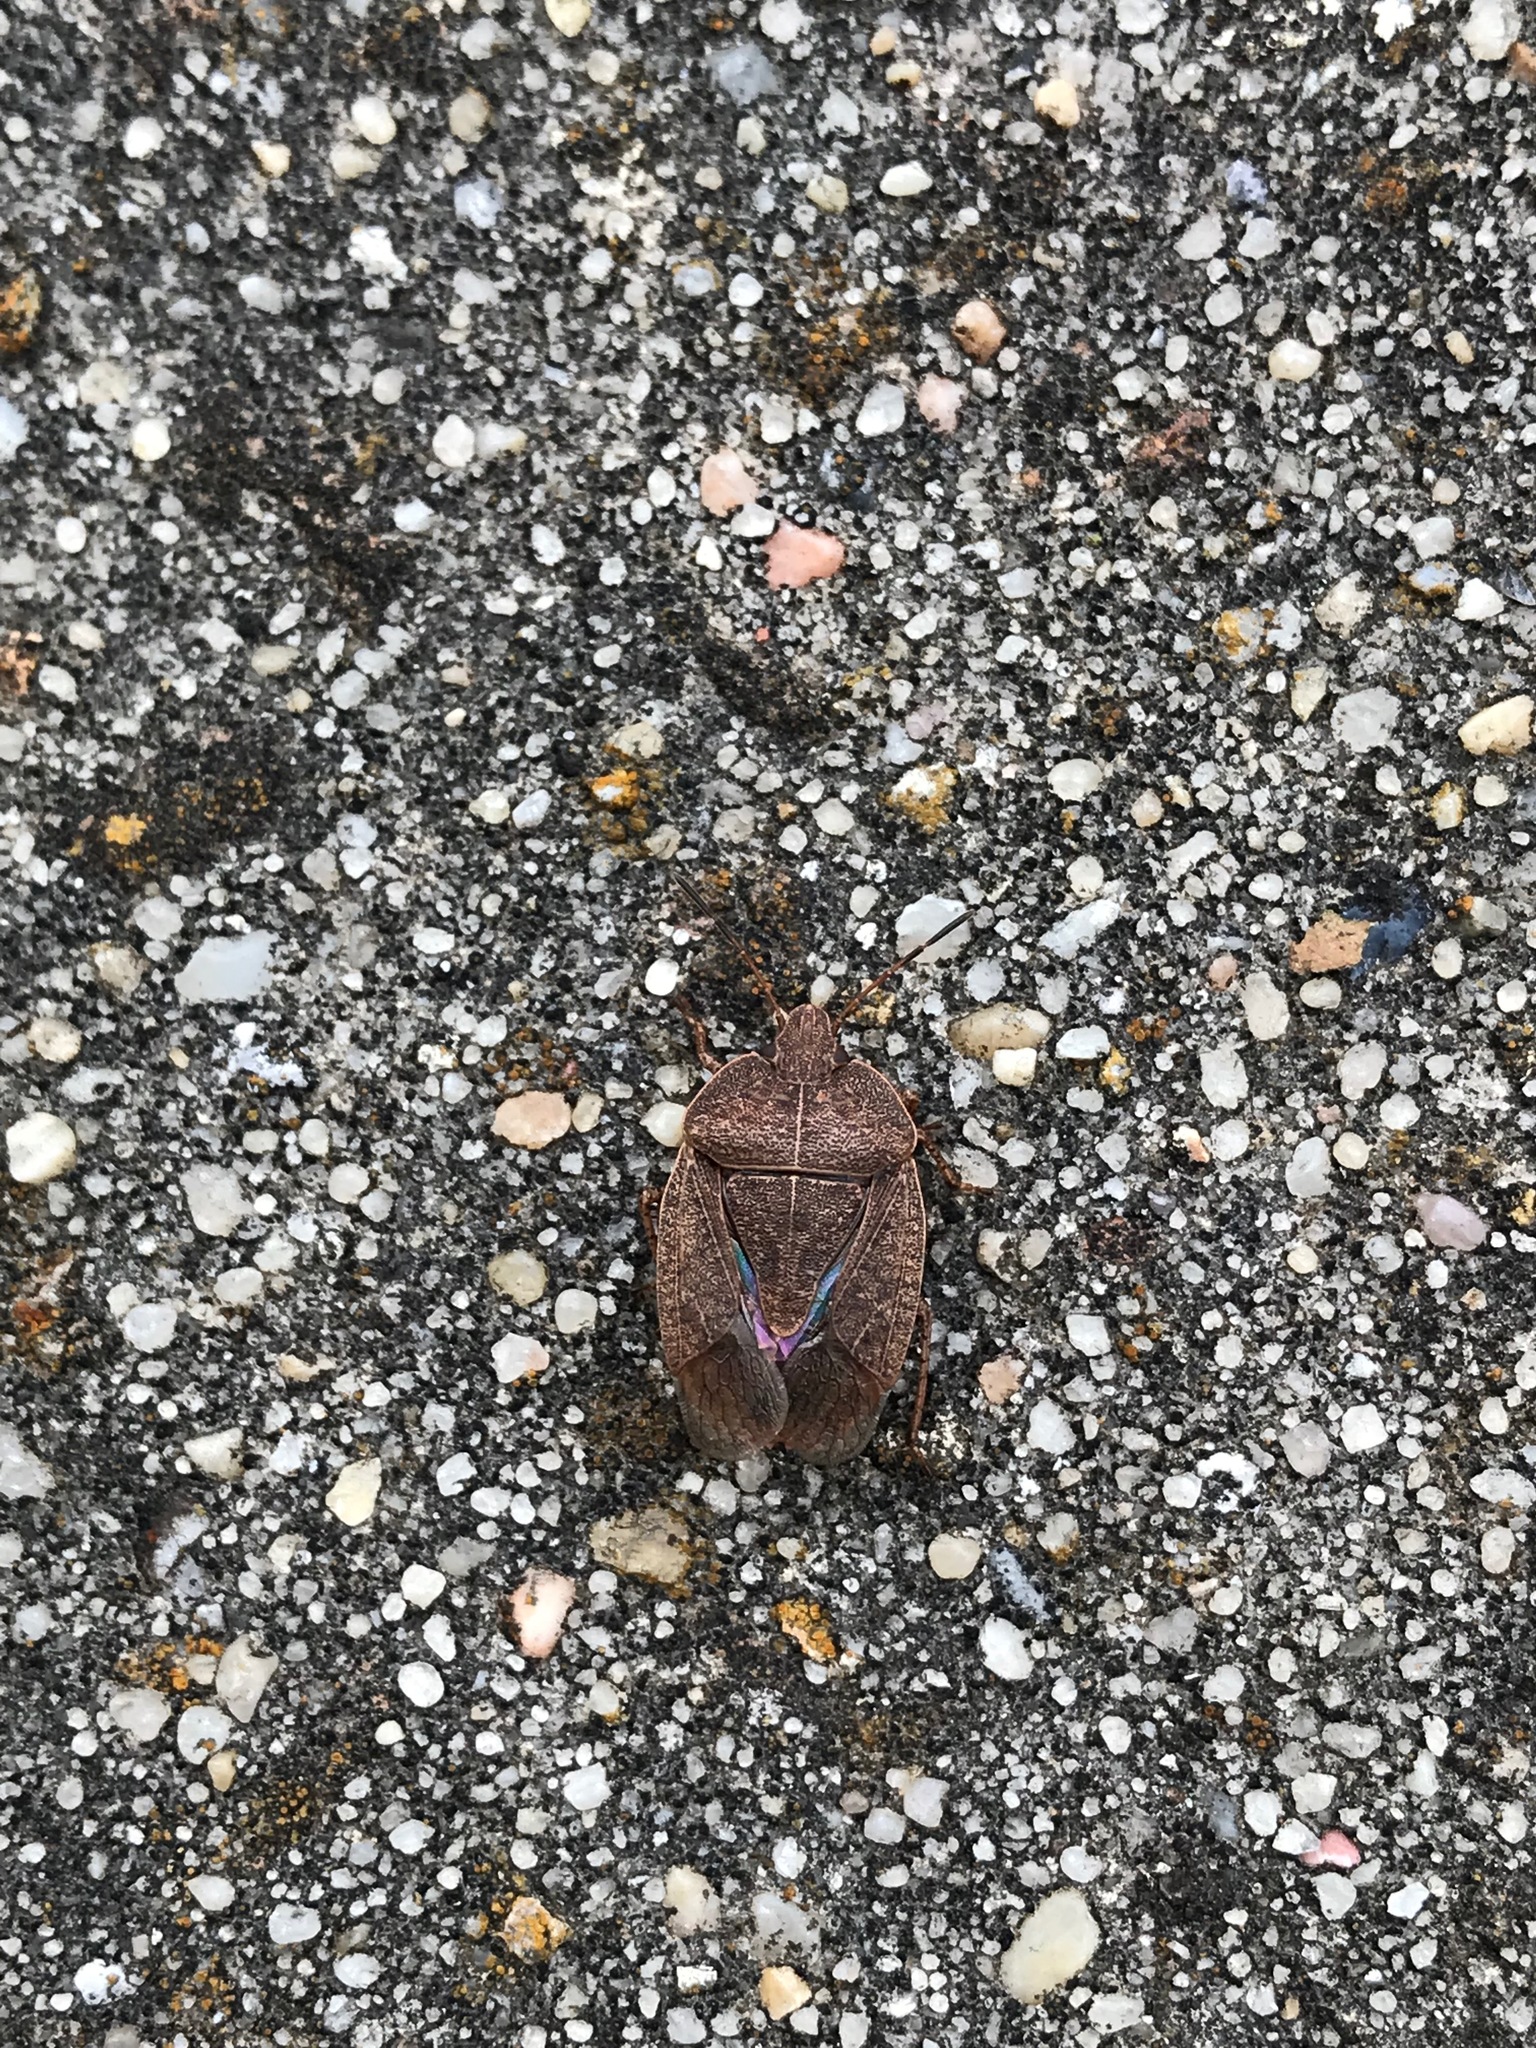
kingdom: Animalia
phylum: Arthropoda
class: Insecta
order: Hemiptera
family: Pentatomidae
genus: Menecles
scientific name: Menecles insertus
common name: Elf shoe stink bug
